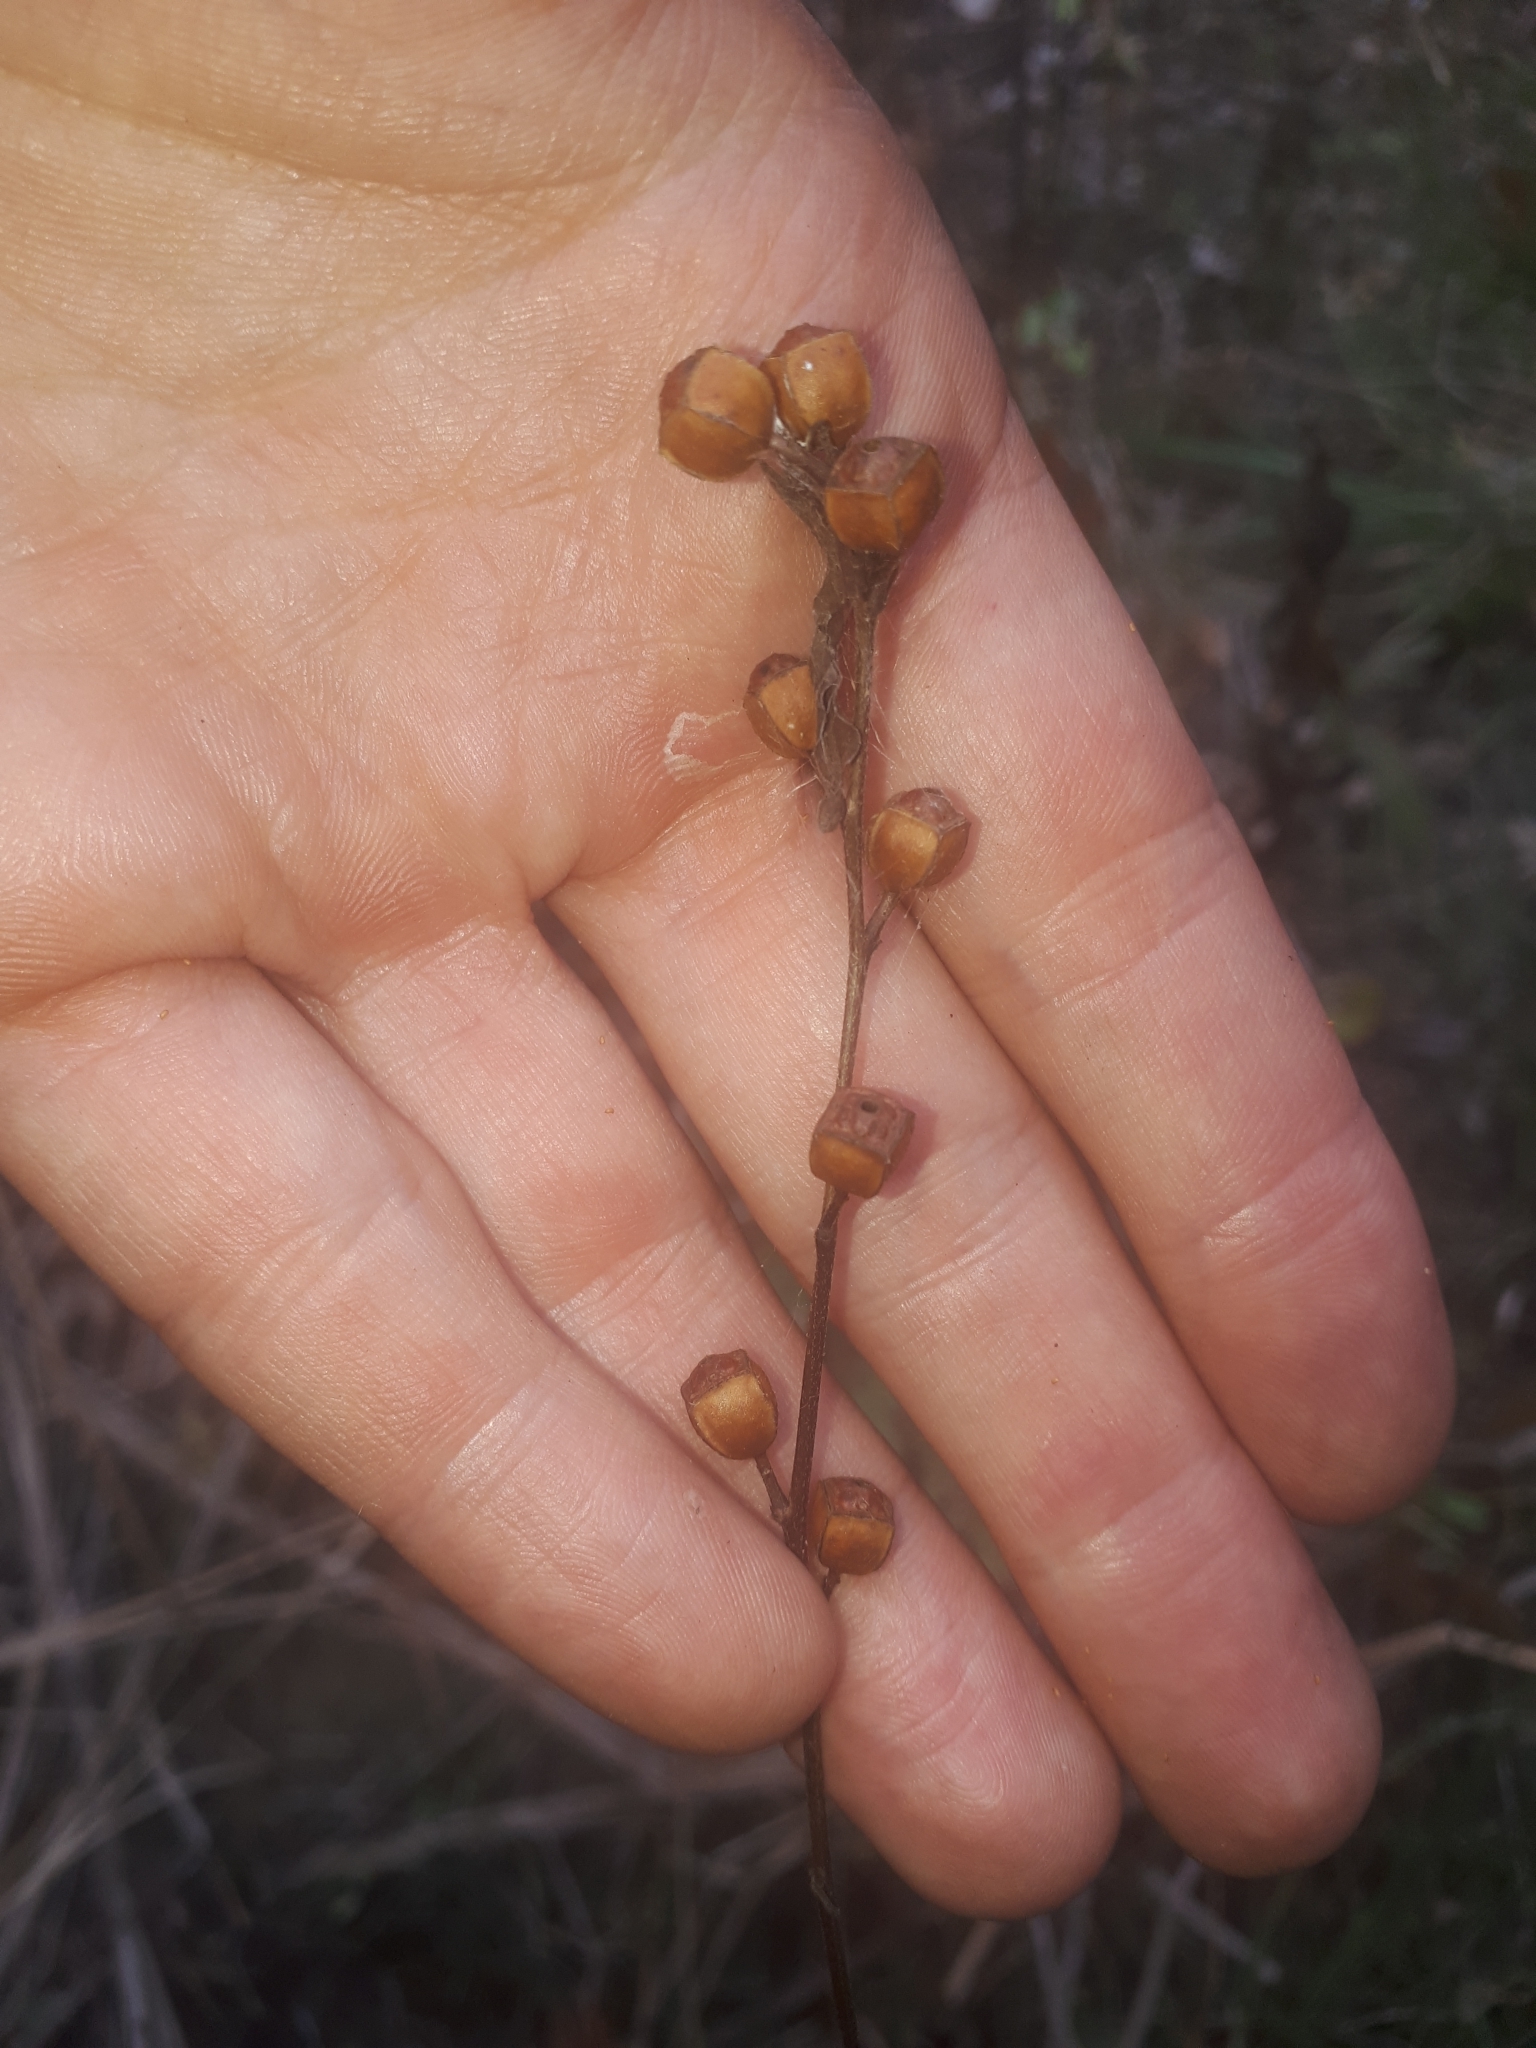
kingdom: Plantae
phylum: Tracheophyta
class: Magnoliopsida
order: Myrtales
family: Onagraceae
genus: Ludwigia
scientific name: Ludwigia alternifolia
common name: Rattlebox
